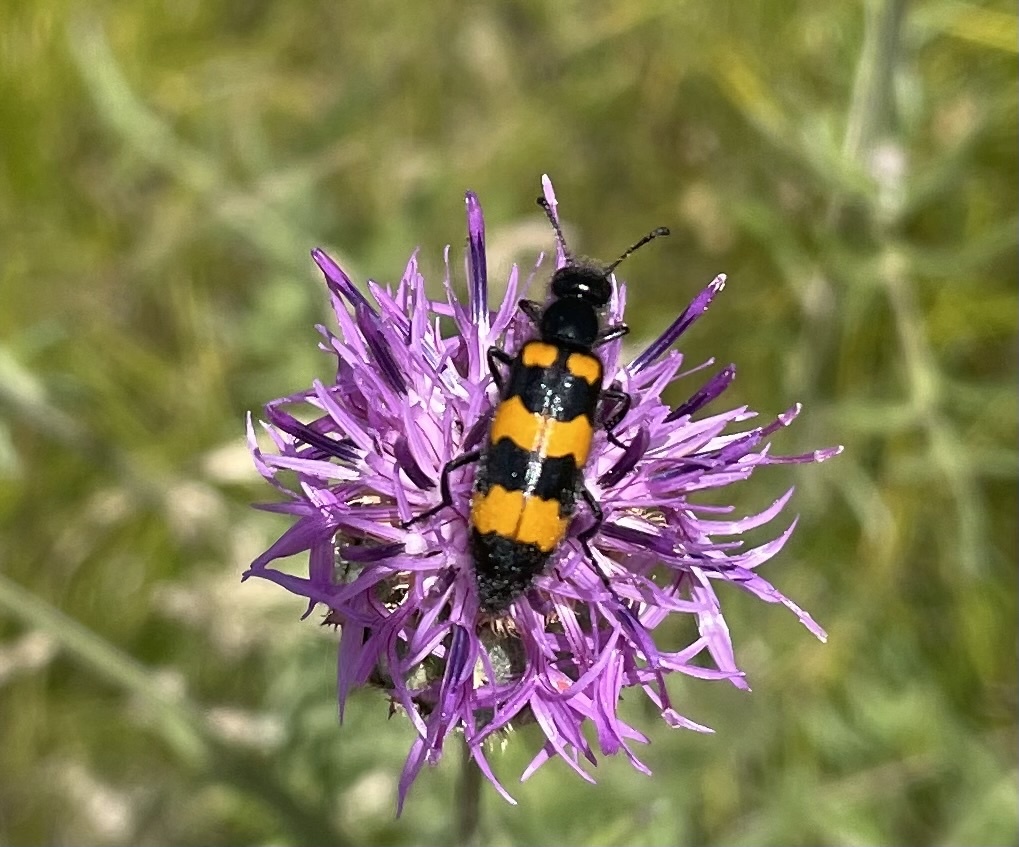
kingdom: Animalia
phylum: Arthropoda
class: Insecta
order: Coleoptera
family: Meloidae
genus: Mylabris
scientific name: Mylabris variabilis
